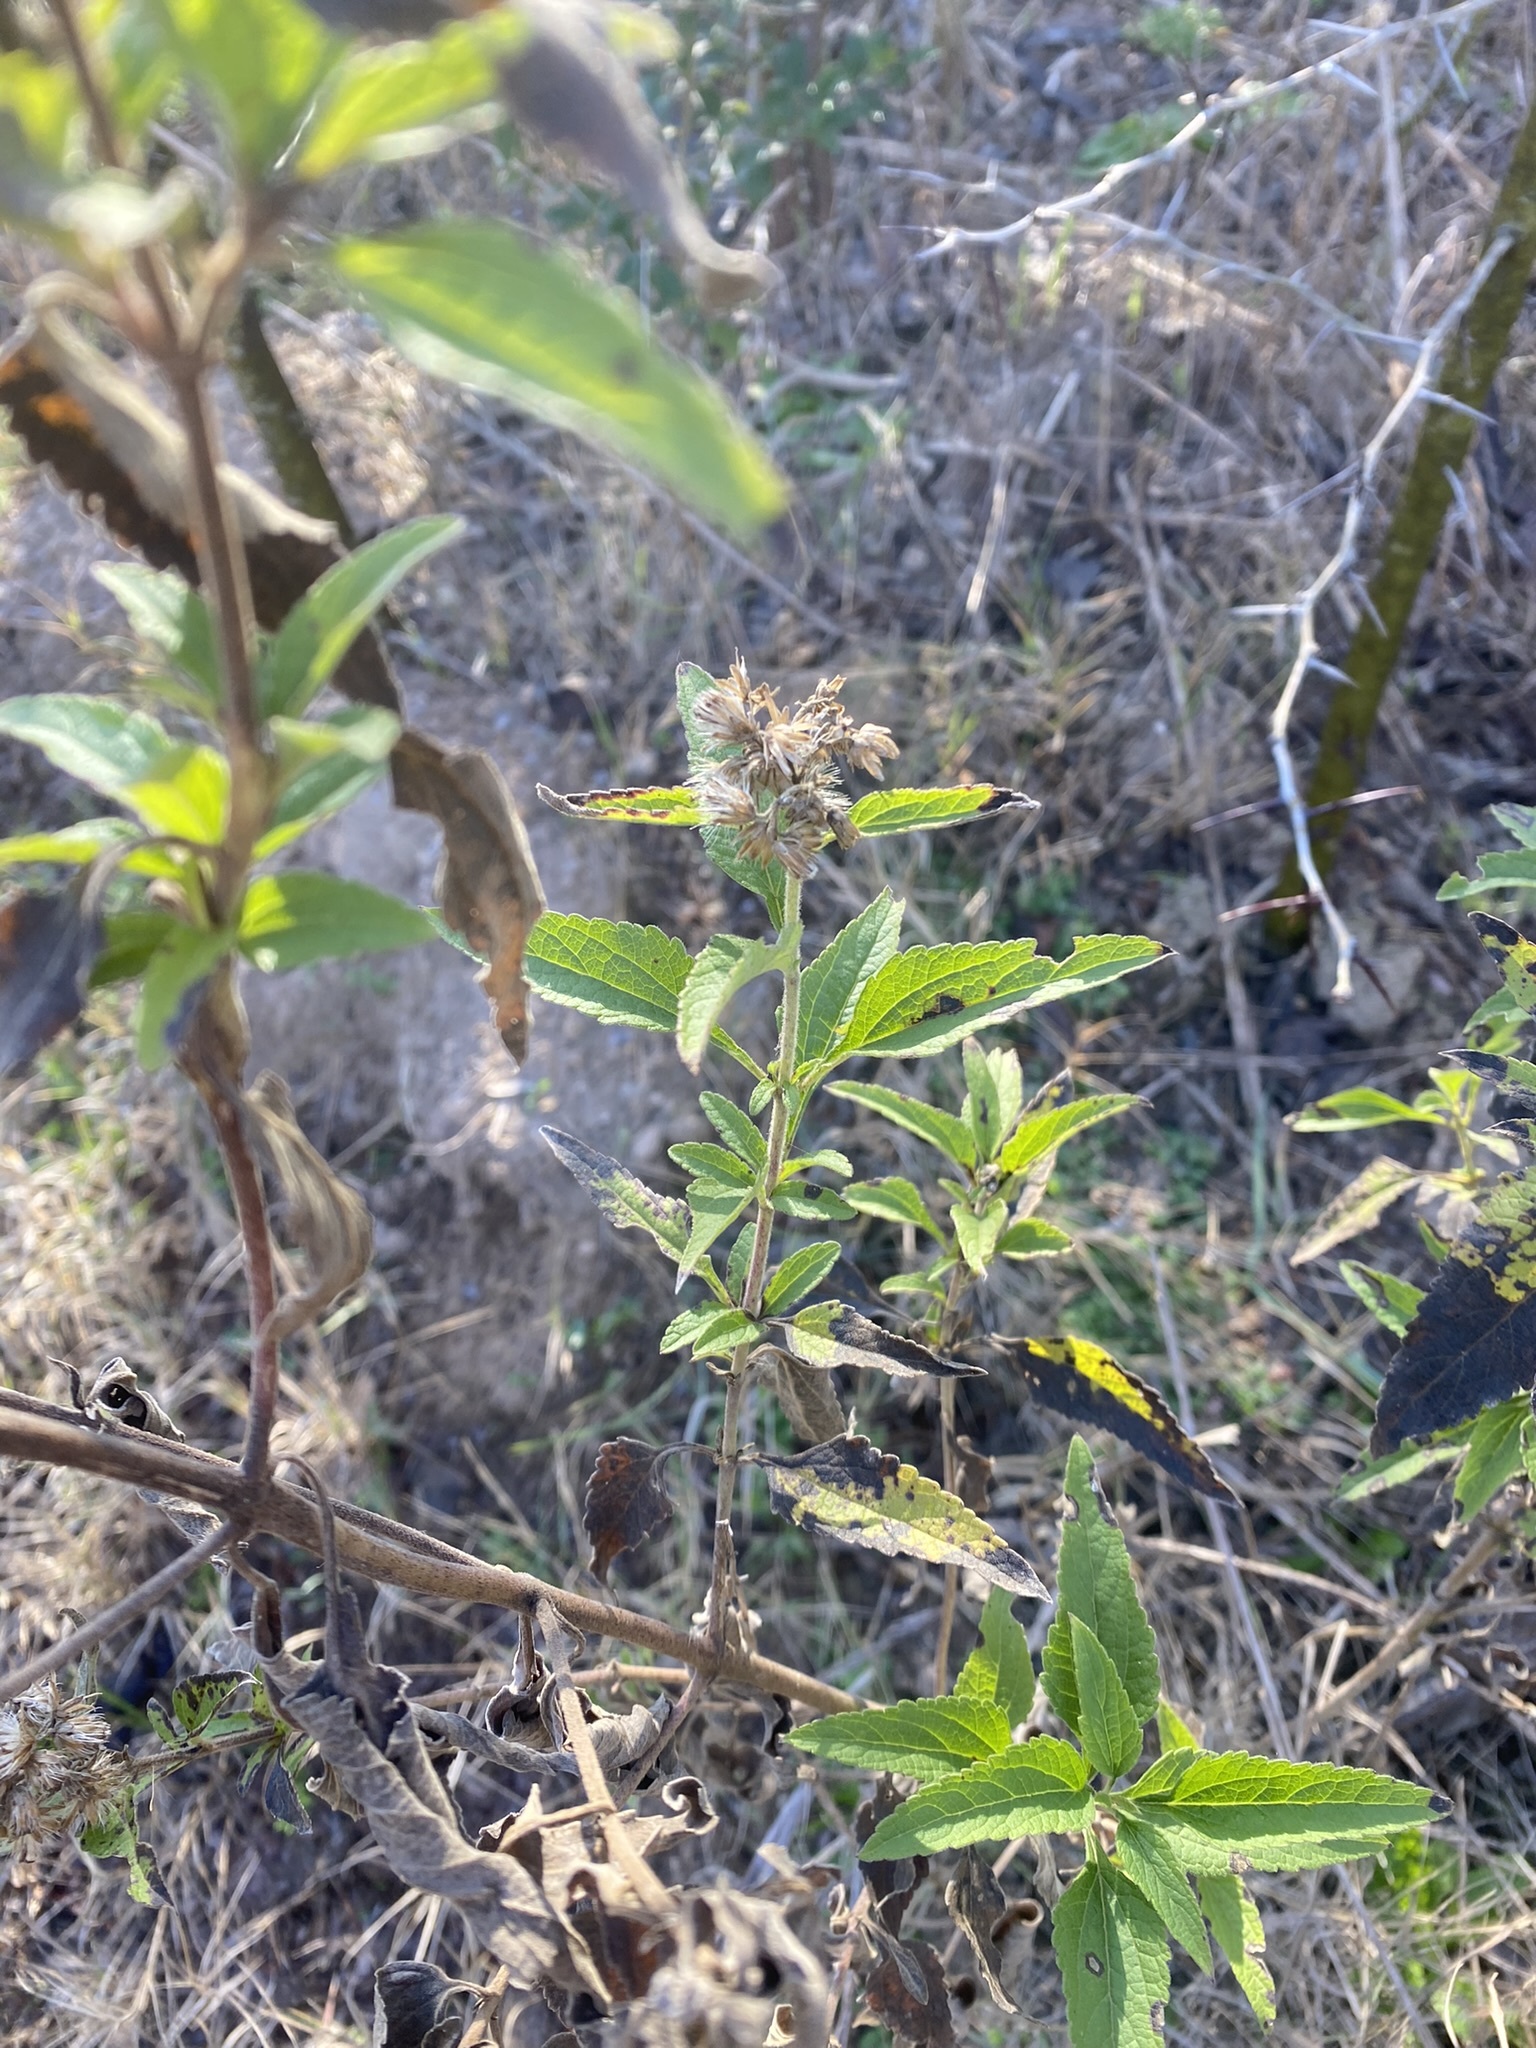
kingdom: Plantae
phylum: Tracheophyta
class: Magnoliopsida
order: Asterales
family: Asteraceae
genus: Austroeupatorium
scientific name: Austroeupatorium inulifolium
